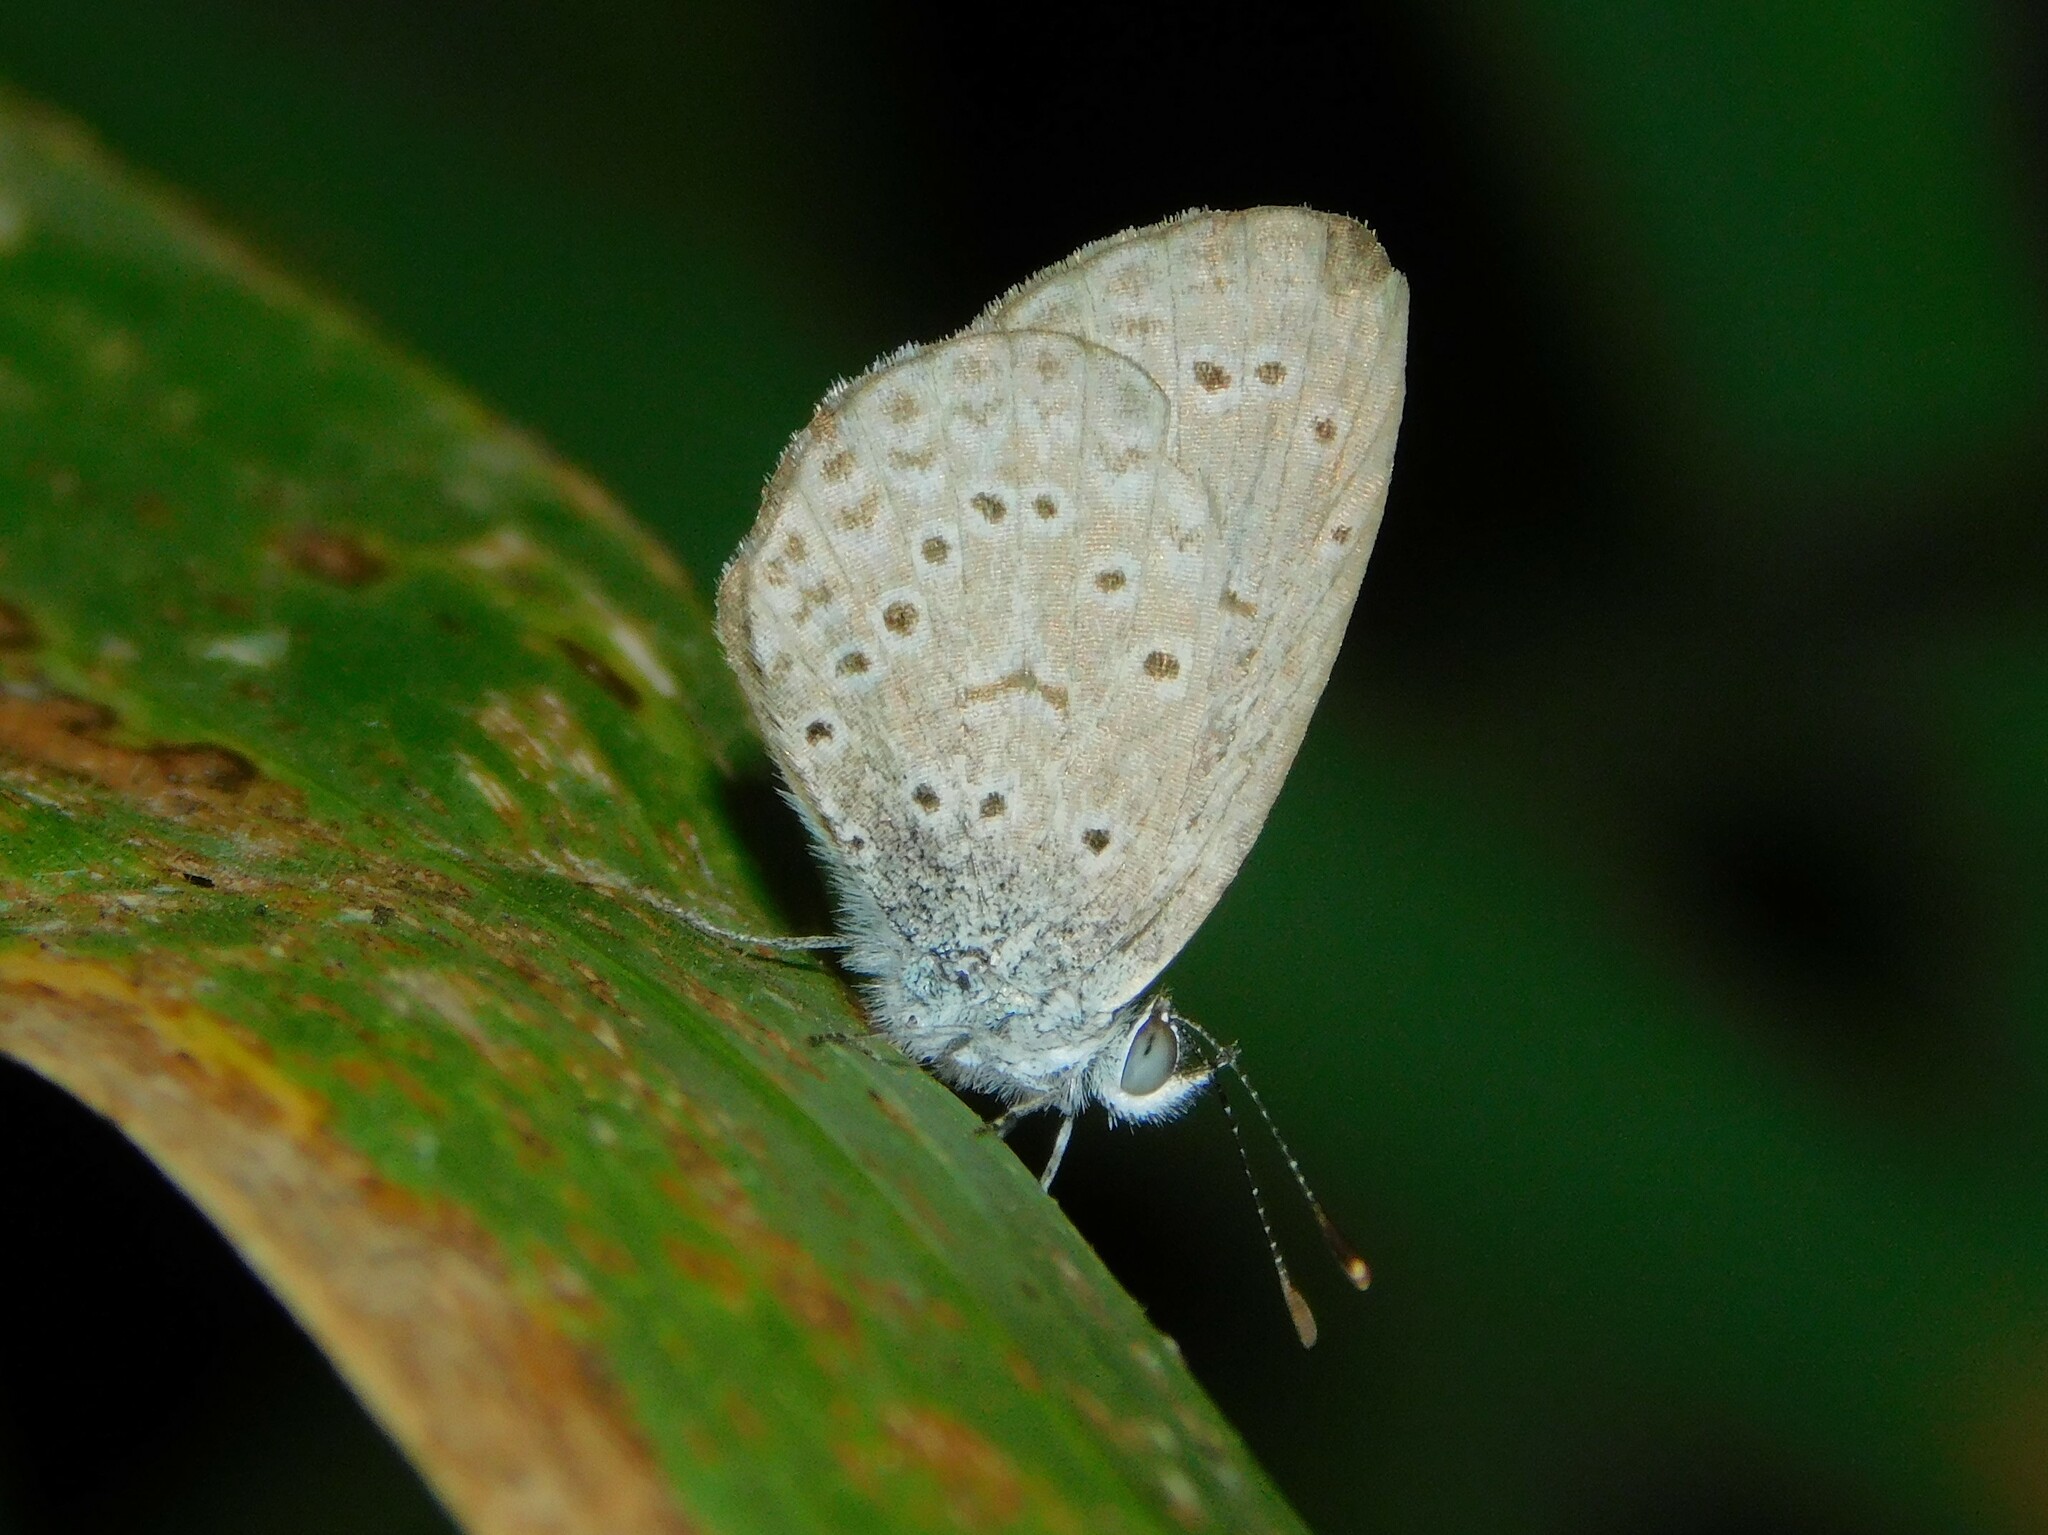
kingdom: Animalia
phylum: Arthropoda
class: Insecta
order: Lepidoptera
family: Lycaenidae
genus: Zizeeria
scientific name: Zizeeria knysna
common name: African grass blue
